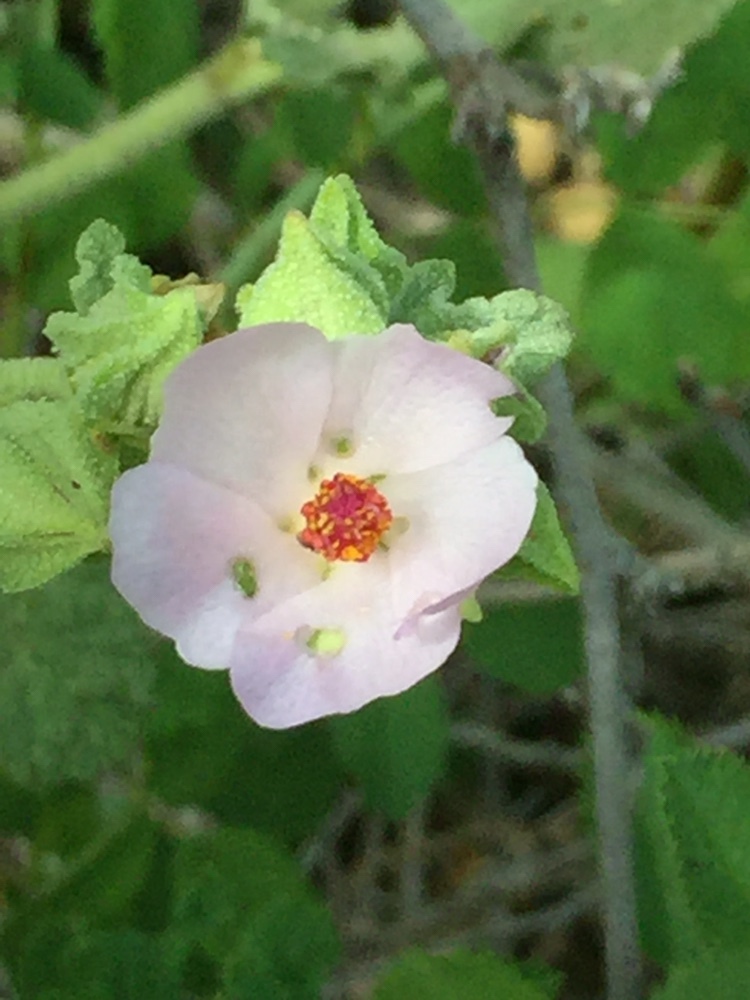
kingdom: Plantae
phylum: Tracheophyta
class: Magnoliopsida
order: Malvales
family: Malvaceae
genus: Malacothamnus
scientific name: Malacothamnus aboriginum
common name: Indian valley bush-mallow
